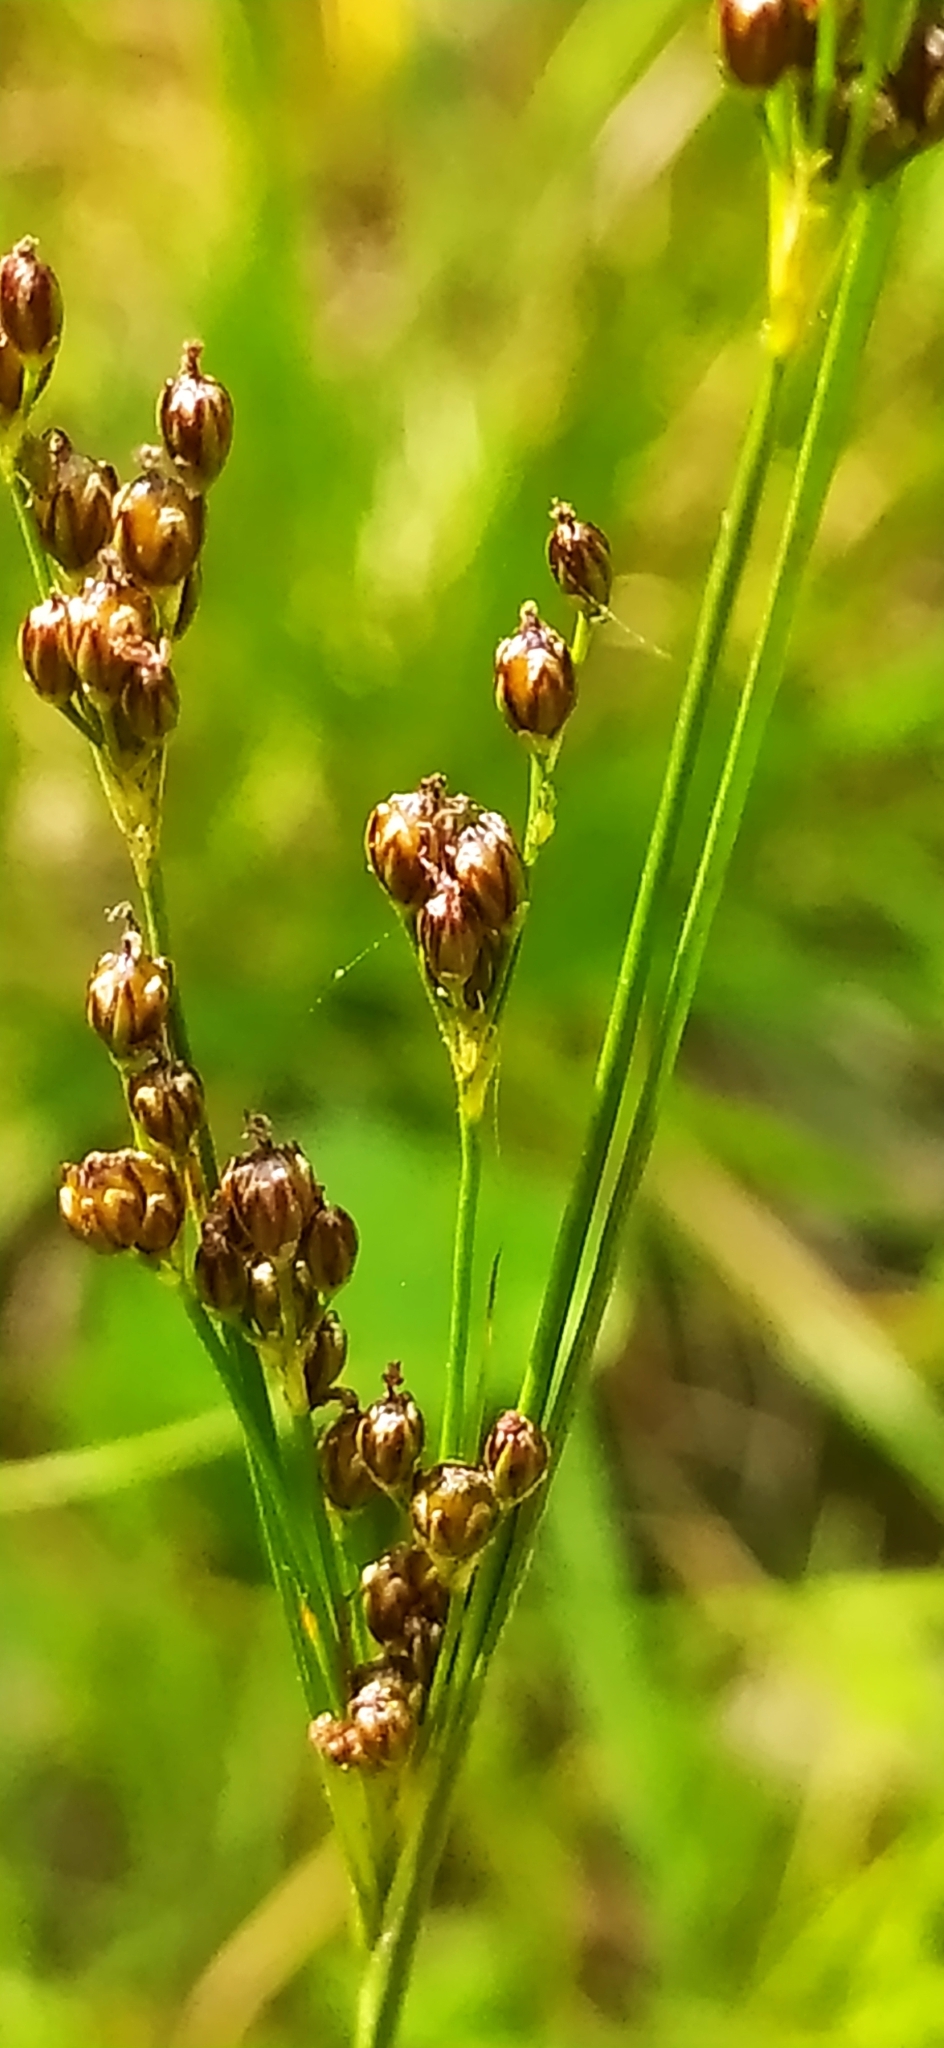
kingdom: Plantae
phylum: Tracheophyta
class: Liliopsida
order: Poales
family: Juncaceae
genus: Juncus
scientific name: Juncus compressus
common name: Round-fruited rush
